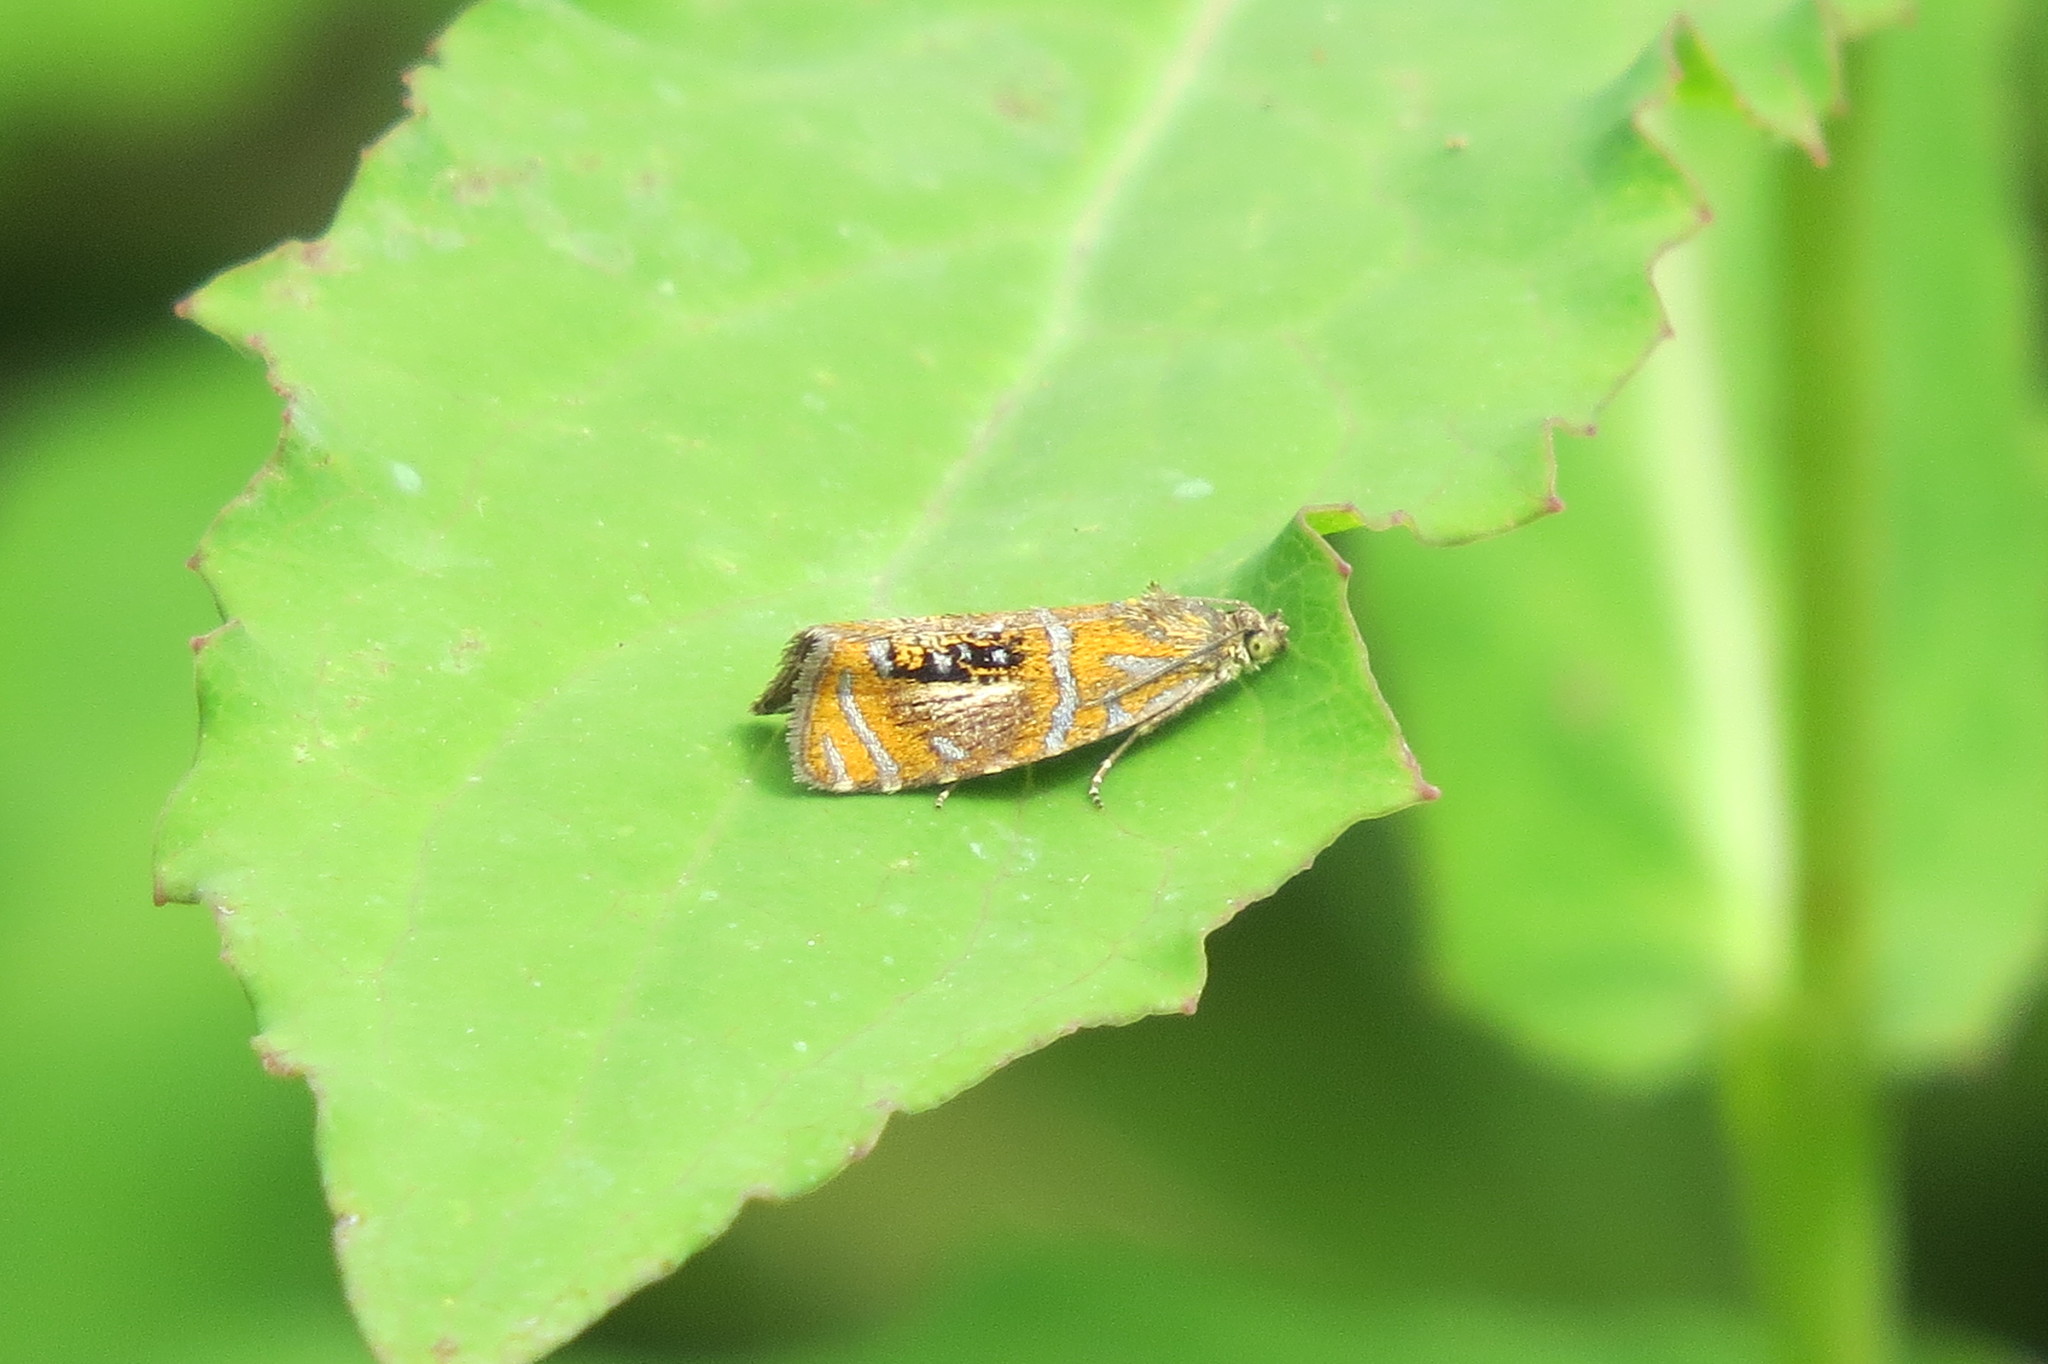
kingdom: Animalia
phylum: Arthropoda
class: Insecta
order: Lepidoptera
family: Tortricidae
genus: Olethreutes
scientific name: Olethreutes arcuella
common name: Arched marble
